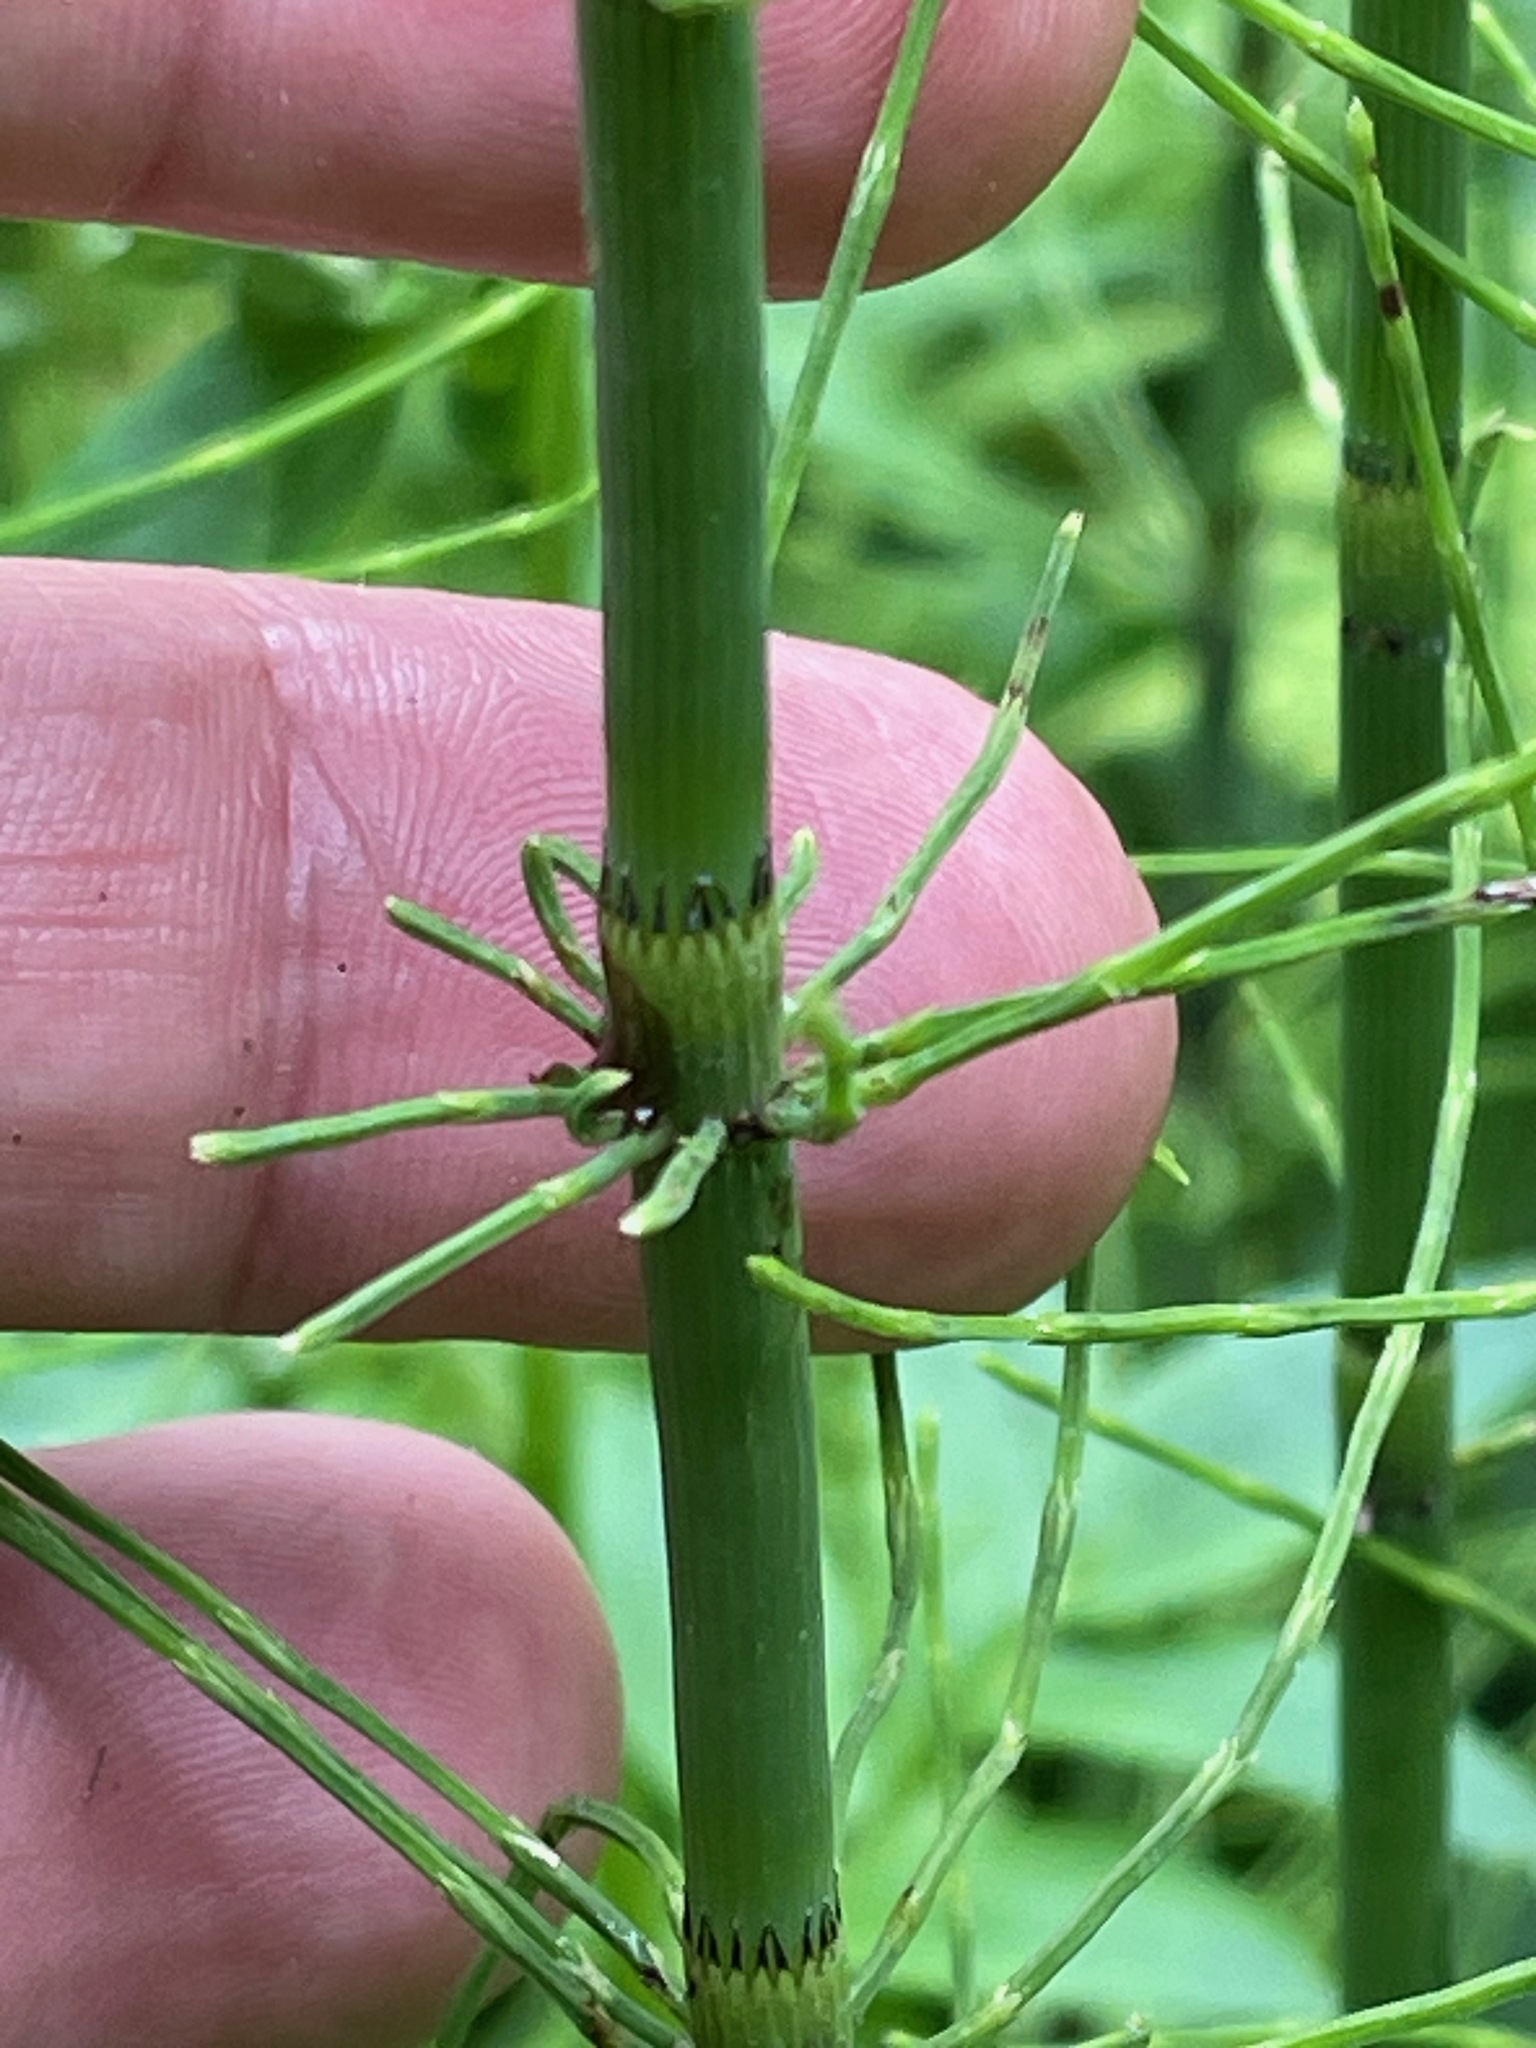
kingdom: Plantae
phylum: Tracheophyta
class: Polypodiopsida
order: Equisetales
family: Equisetaceae
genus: Equisetum
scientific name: Equisetum fluviatile
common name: Water horsetail
